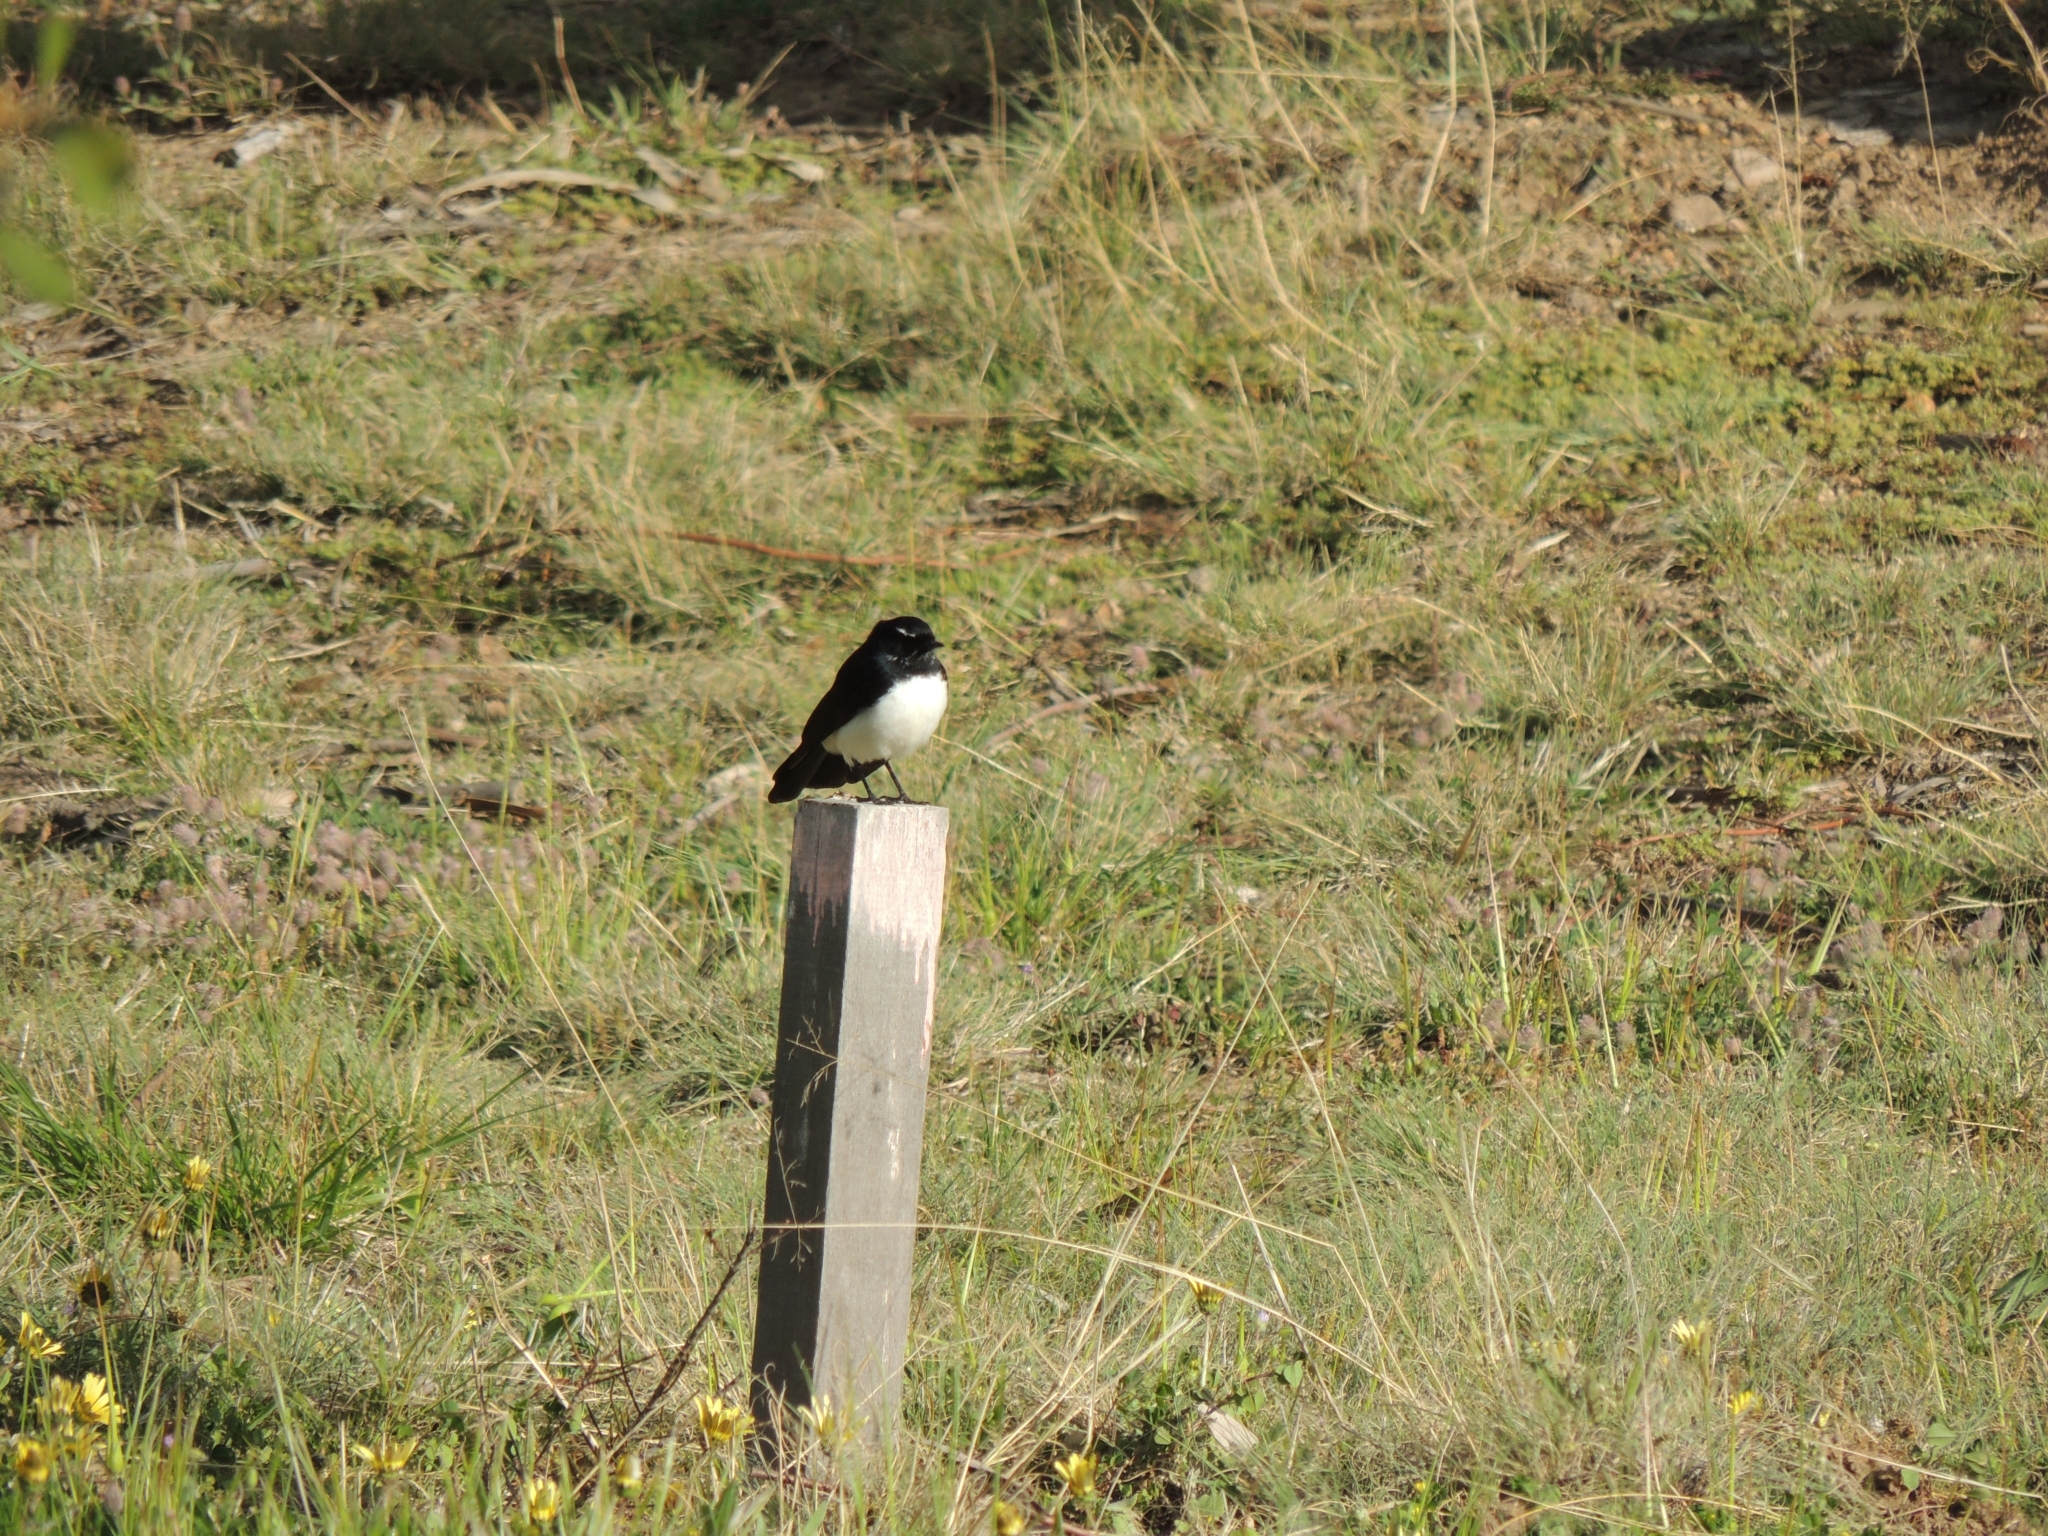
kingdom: Animalia
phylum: Chordata
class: Aves
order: Passeriformes
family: Rhipiduridae
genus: Rhipidura
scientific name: Rhipidura leucophrys
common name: Willie wagtail
